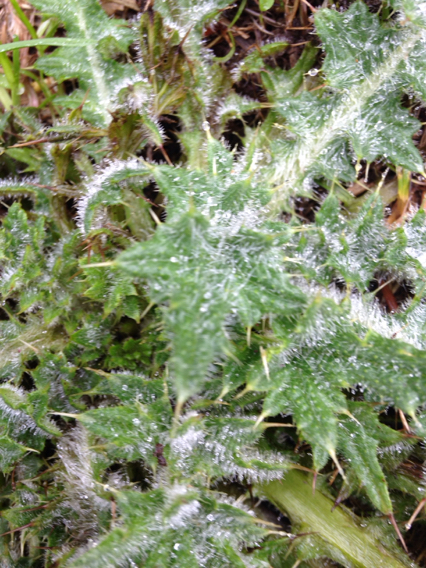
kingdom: Plantae
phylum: Tracheophyta
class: Magnoliopsida
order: Asterales
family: Asteraceae
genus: Cirsium
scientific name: Cirsium vulgare
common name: Bull thistle
